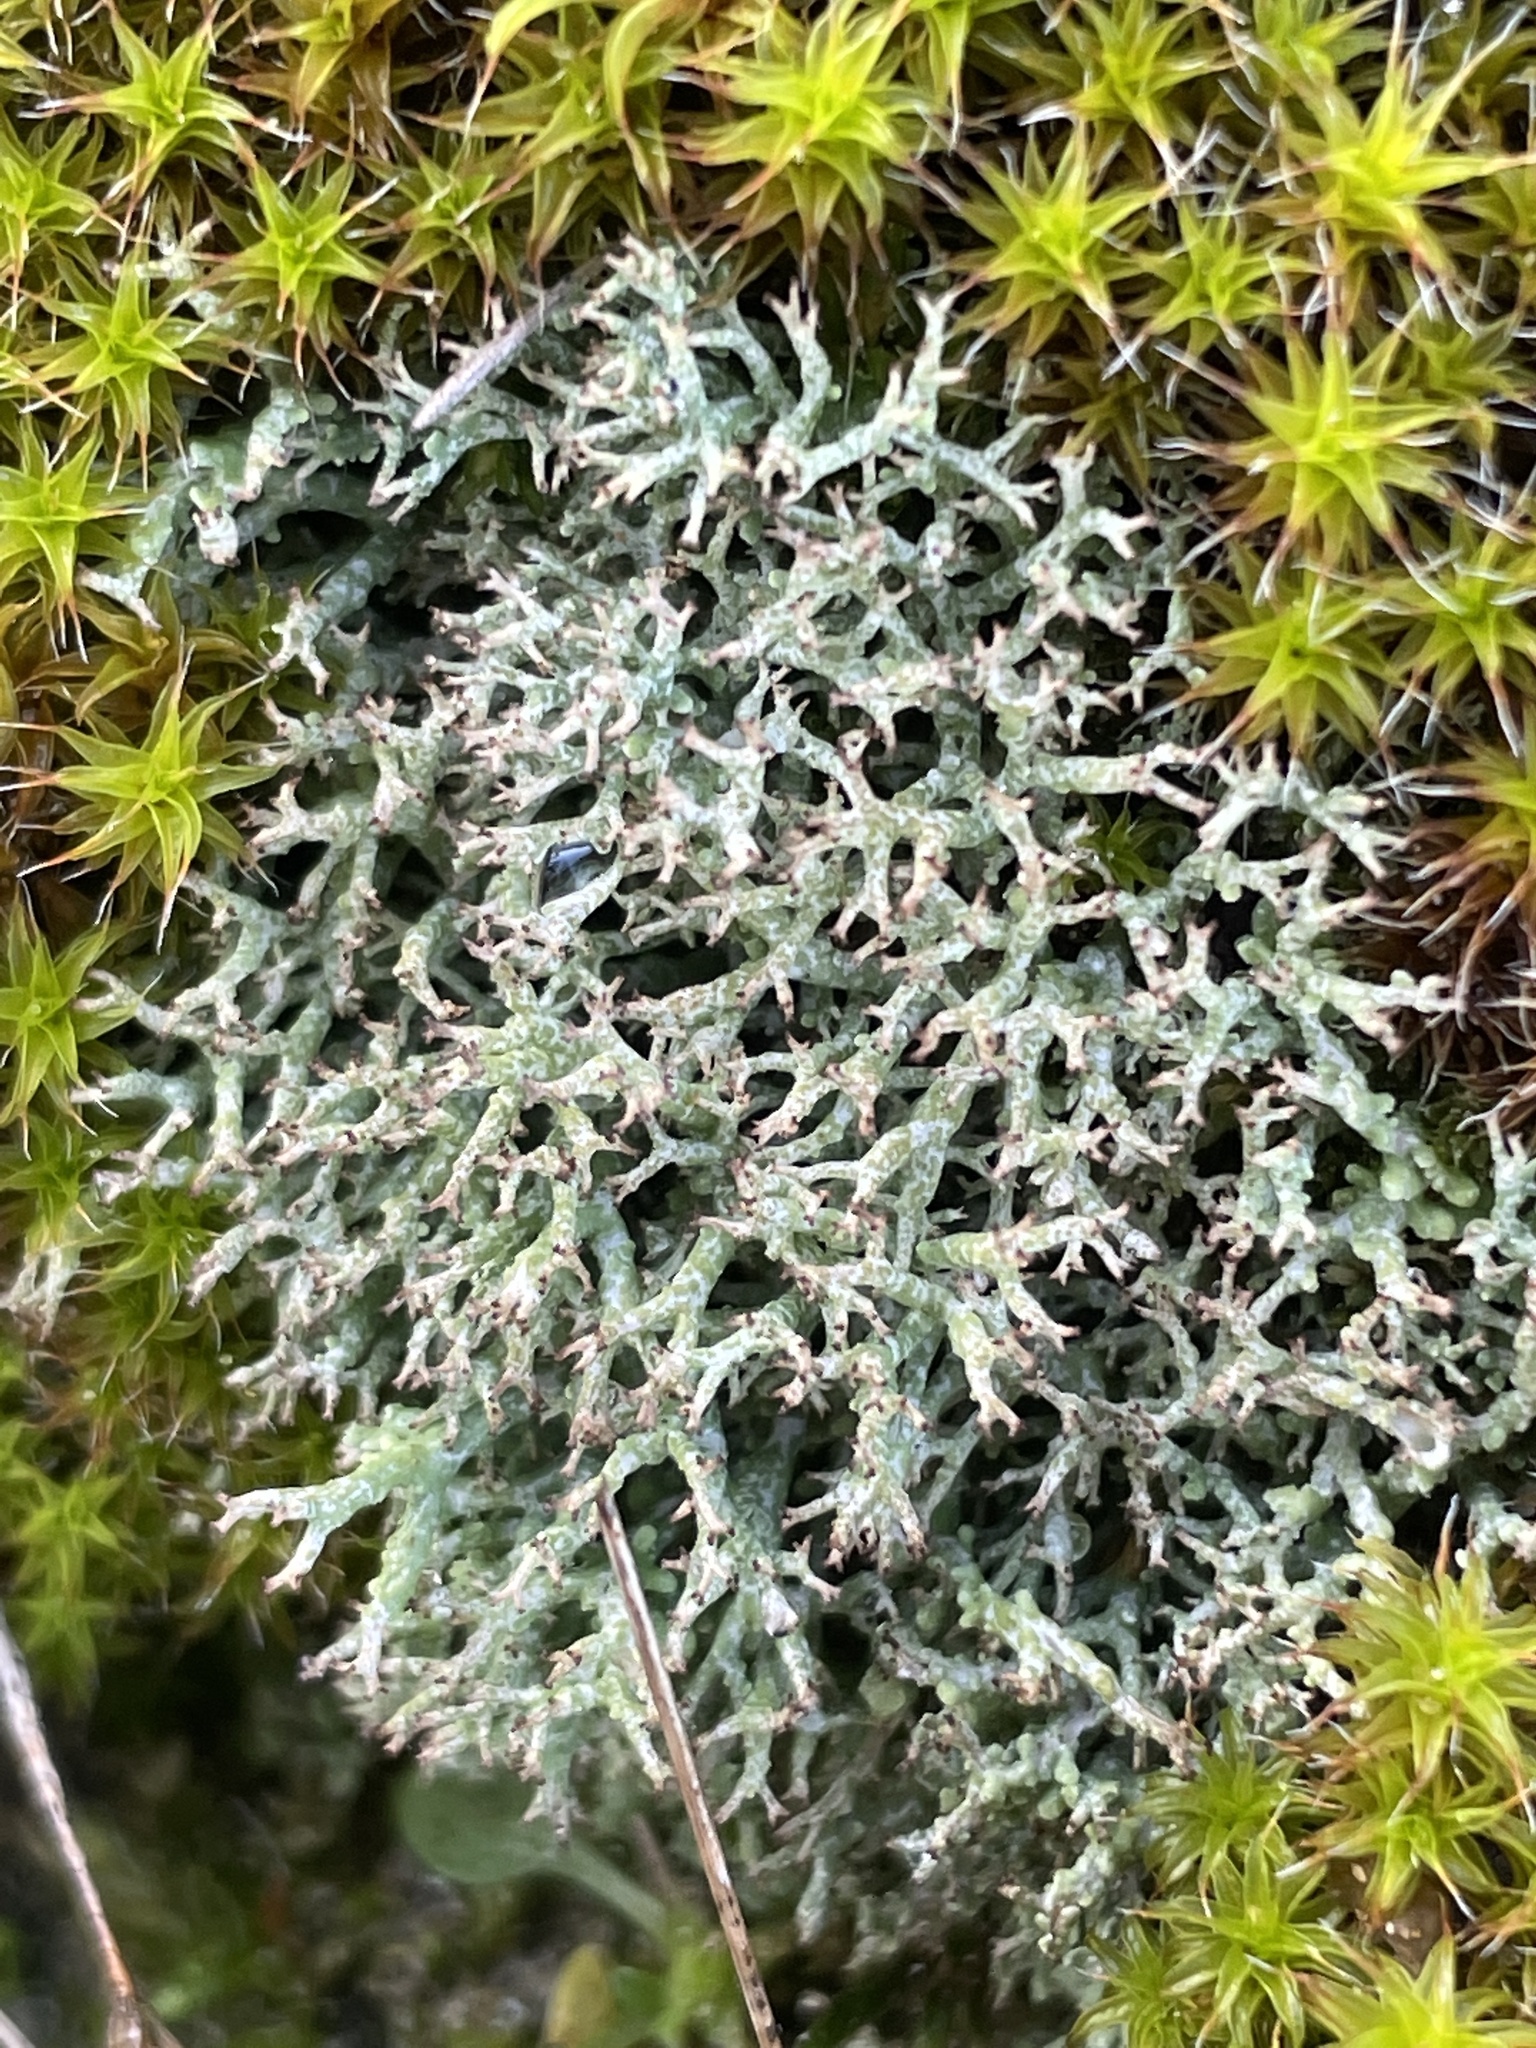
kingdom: Fungi
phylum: Ascomycota
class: Lecanoromycetes
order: Lecanorales
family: Cladoniaceae
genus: Cladonia
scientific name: Cladonia rangiformis
